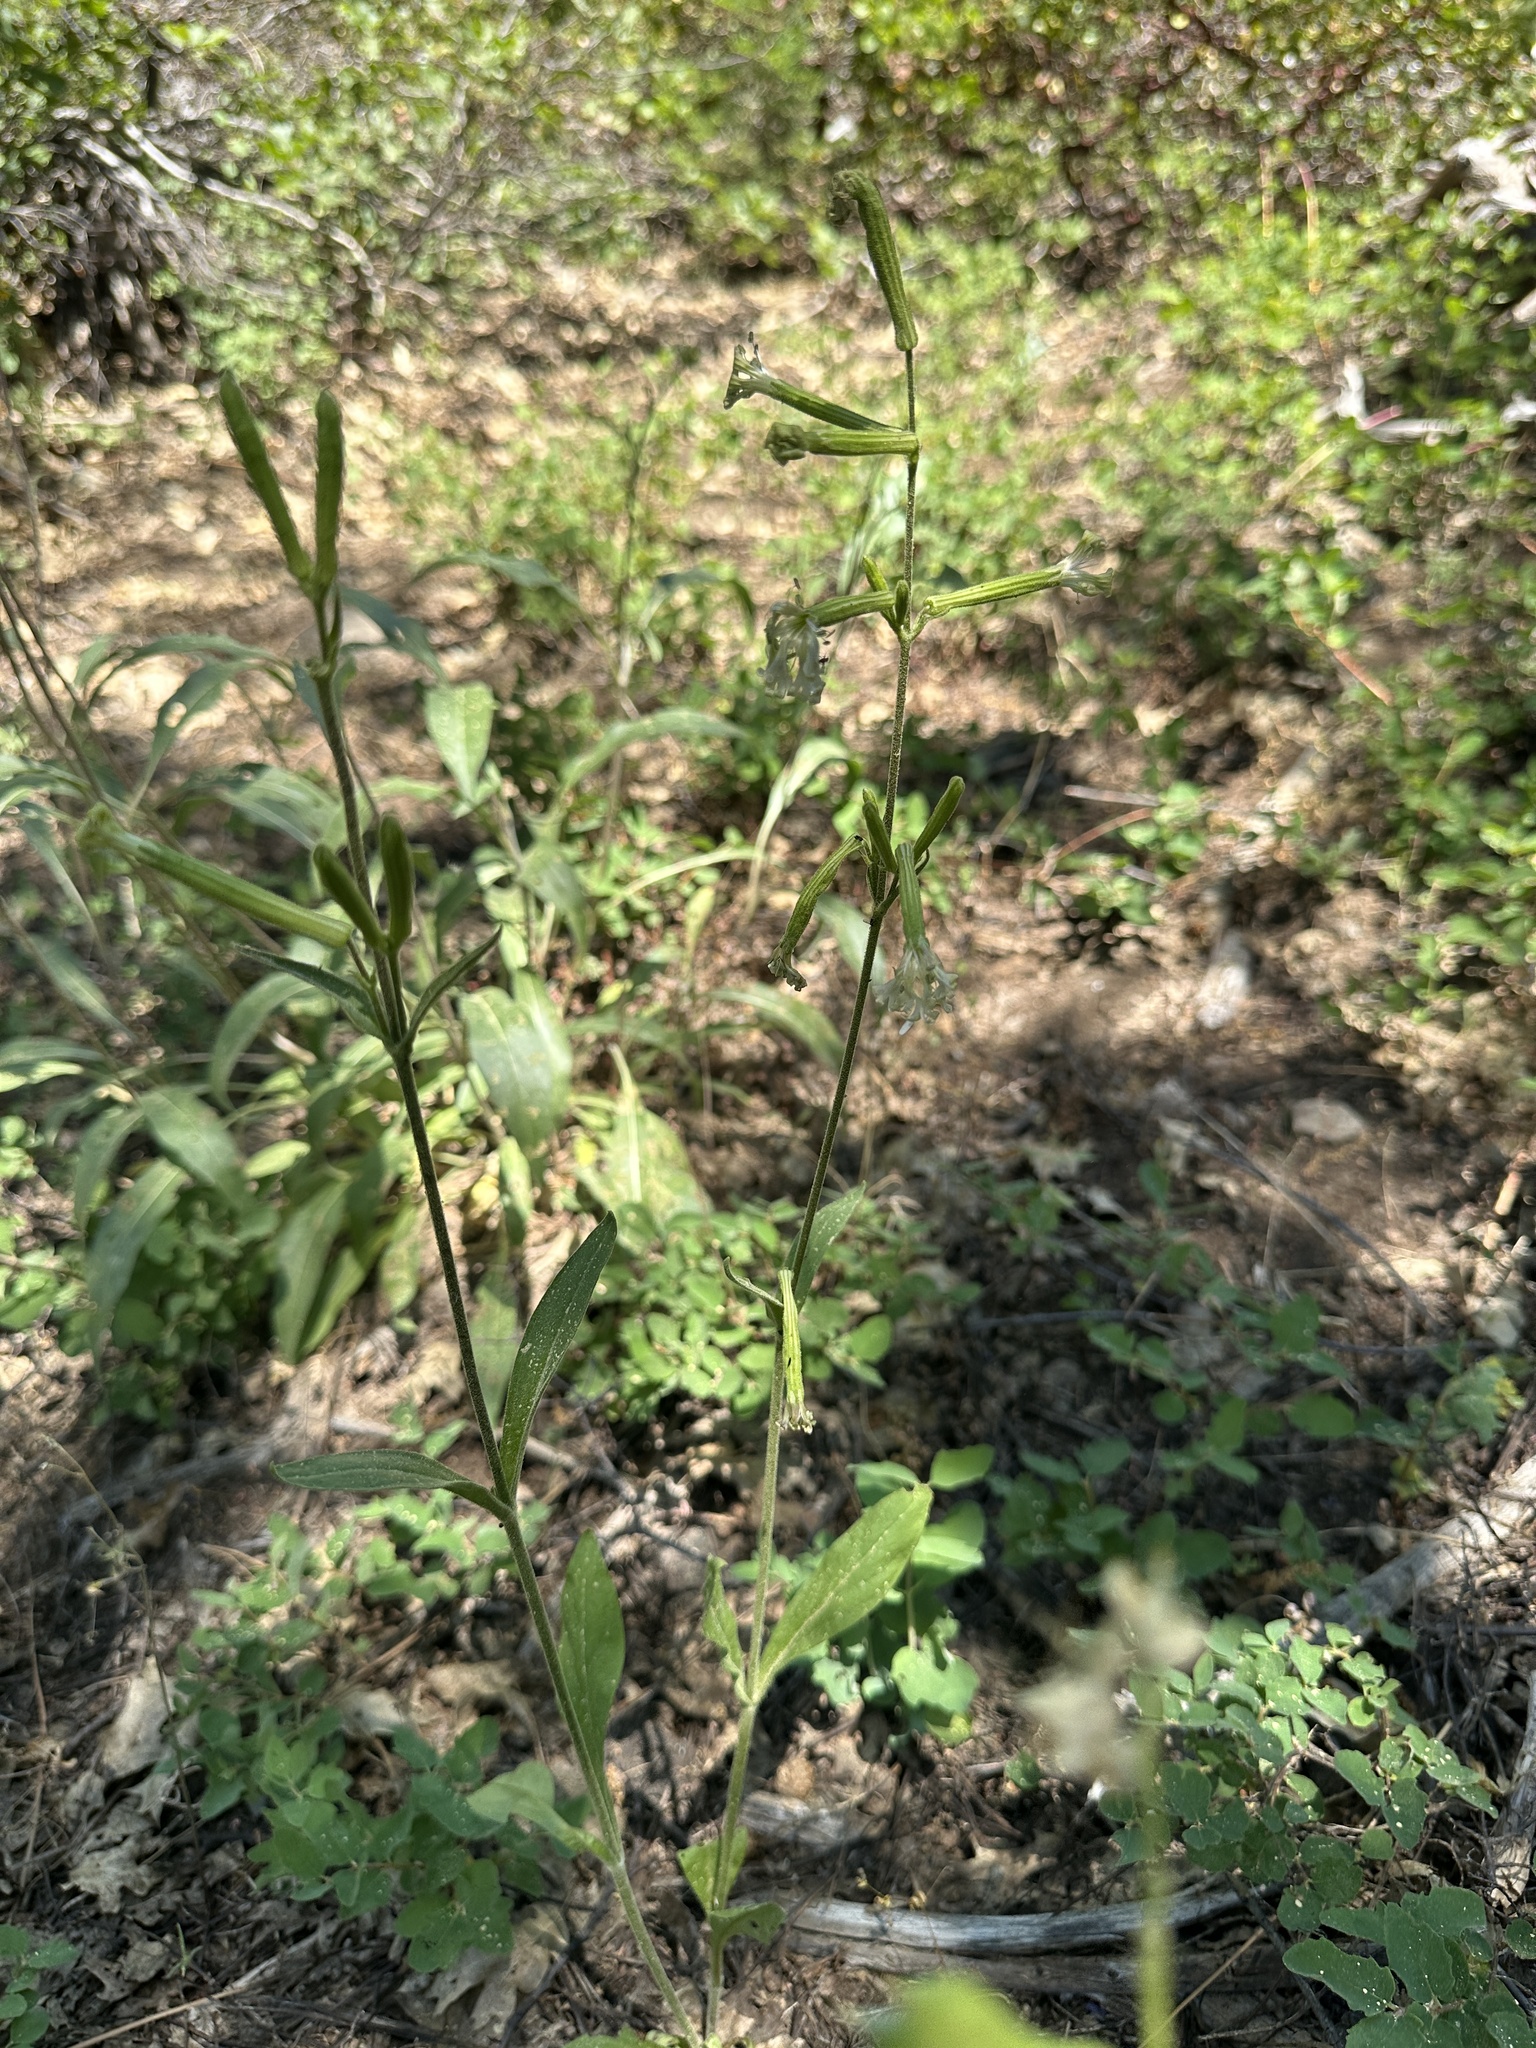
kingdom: Plantae
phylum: Tracheophyta
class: Magnoliopsida
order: Caryophyllales
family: Caryophyllaceae
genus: Silene
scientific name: Silene occidentalis
